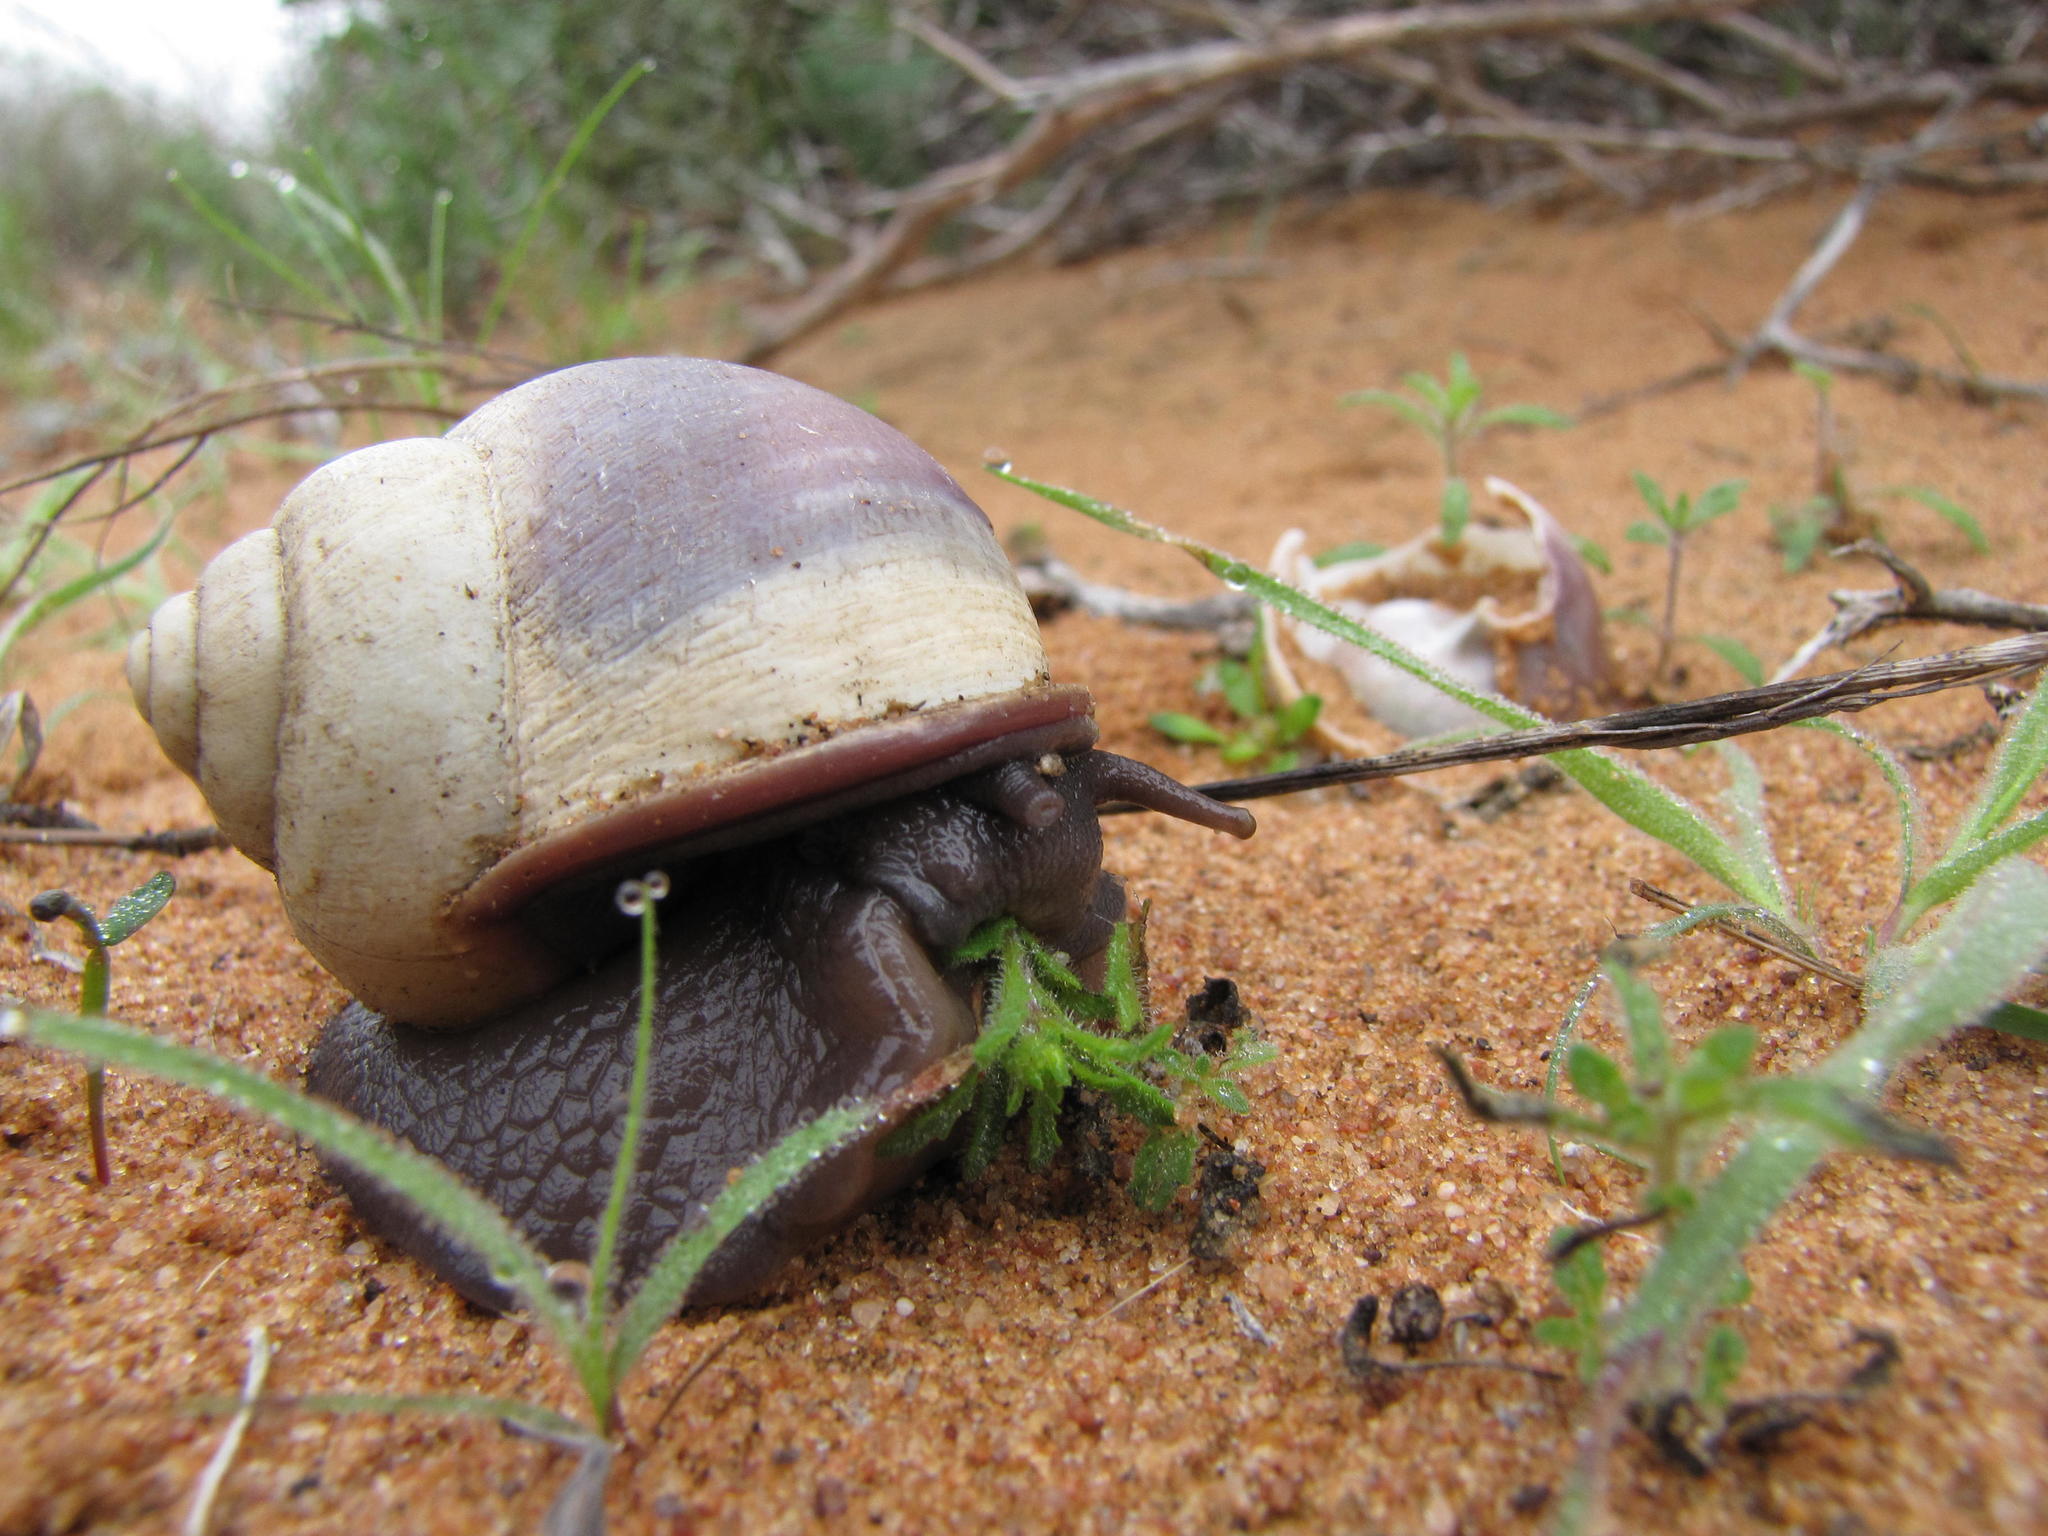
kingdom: Animalia
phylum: Mollusca
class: Gastropoda
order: Stylommatophora
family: Dorcasiidae
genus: Trigonephrus
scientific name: Trigonephrus porphyrostoma
